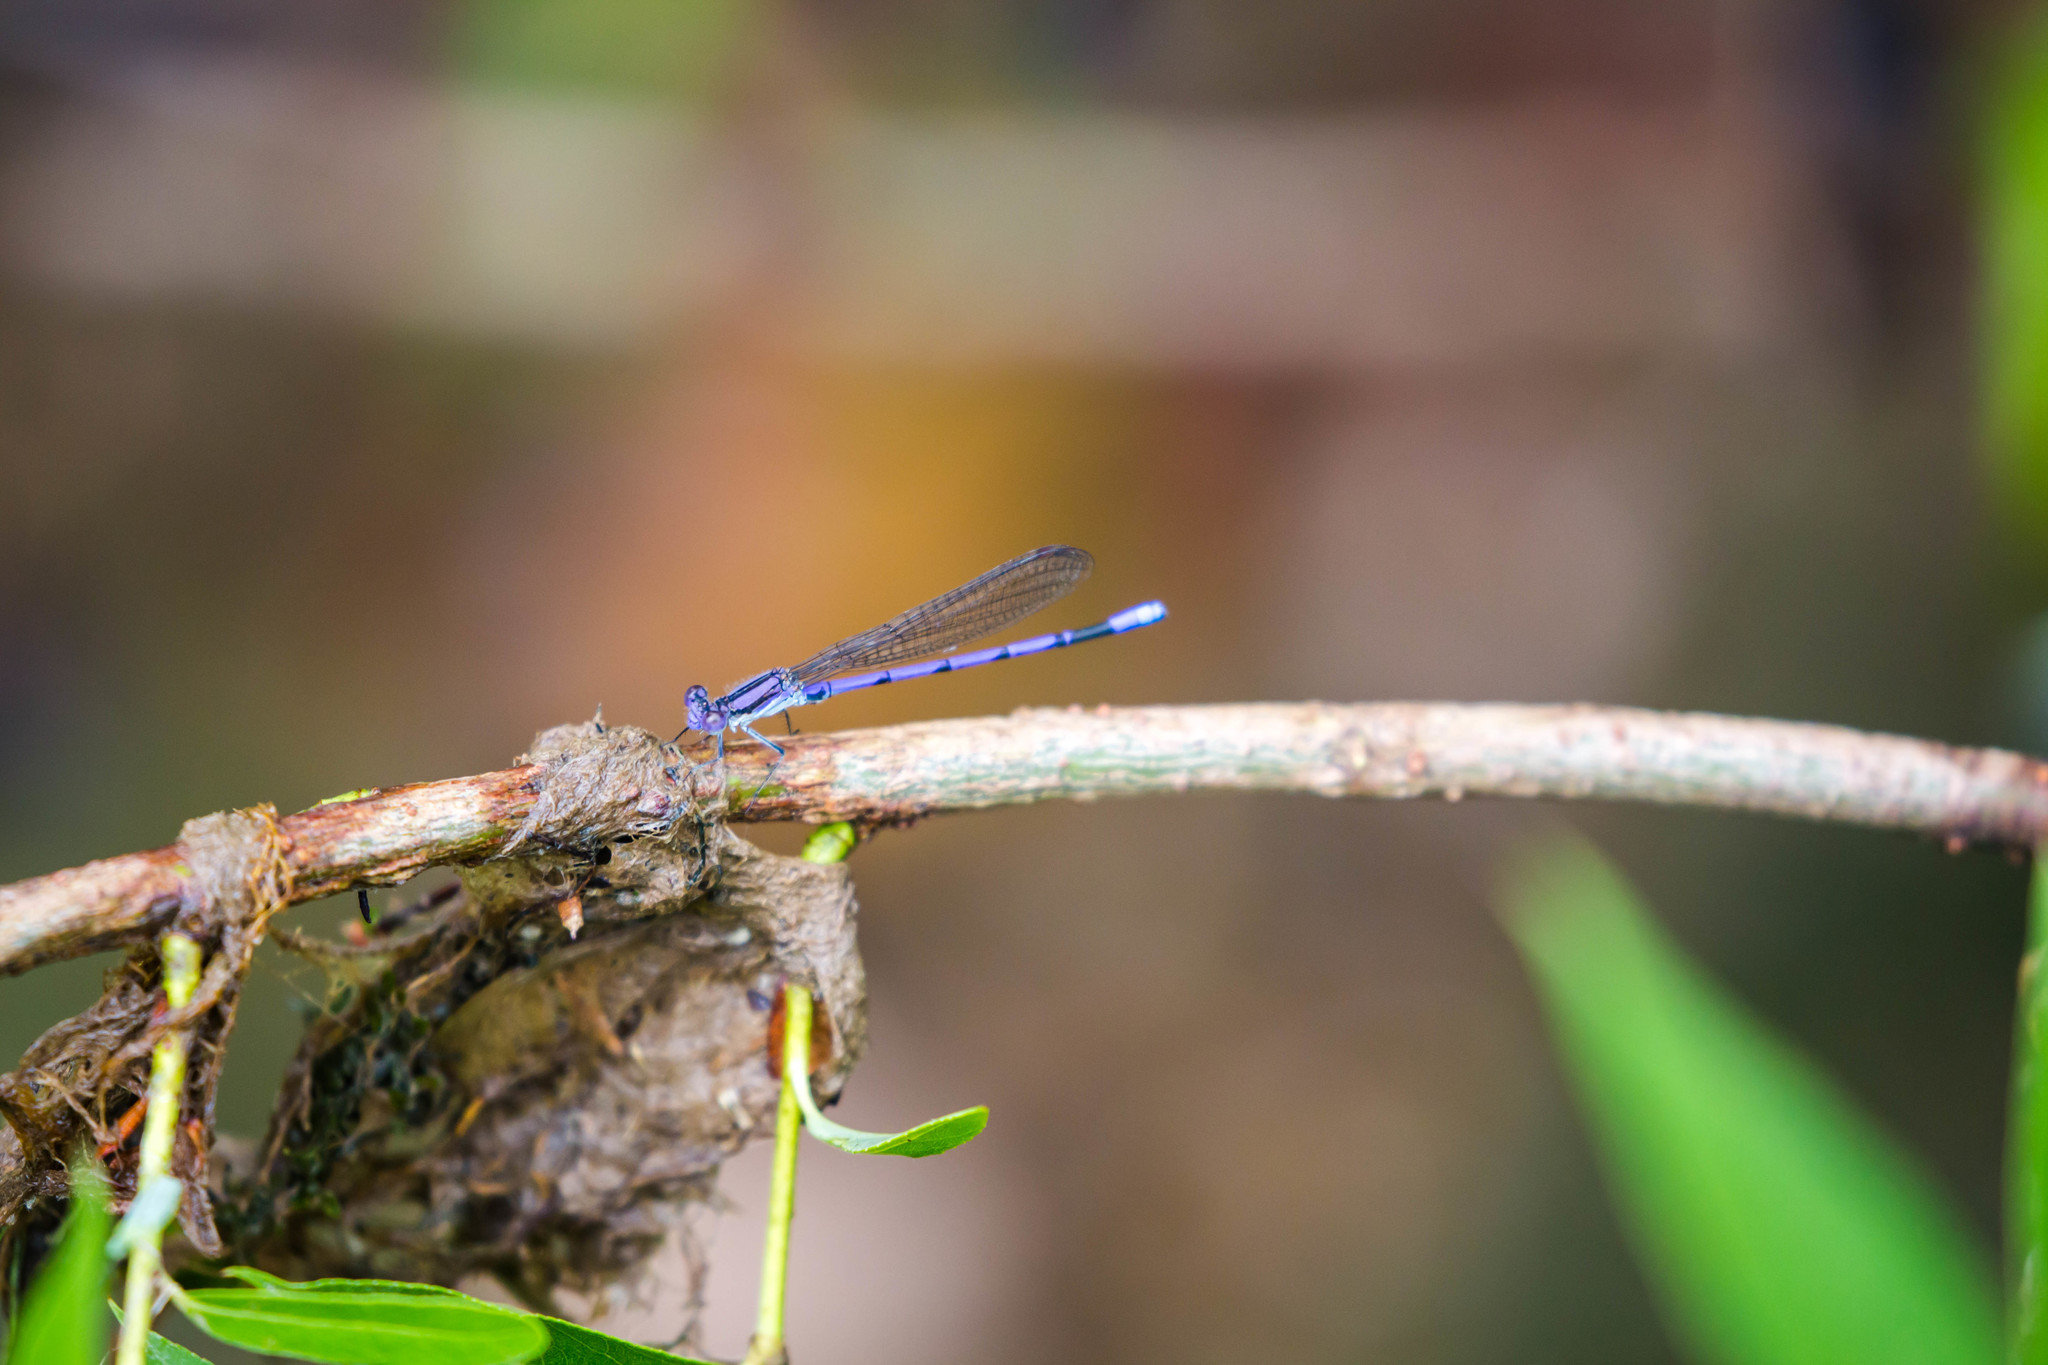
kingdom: Animalia
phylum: Arthropoda
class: Insecta
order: Odonata
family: Coenagrionidae
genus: Argia
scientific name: Argia fumipennis
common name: Variable dancer
